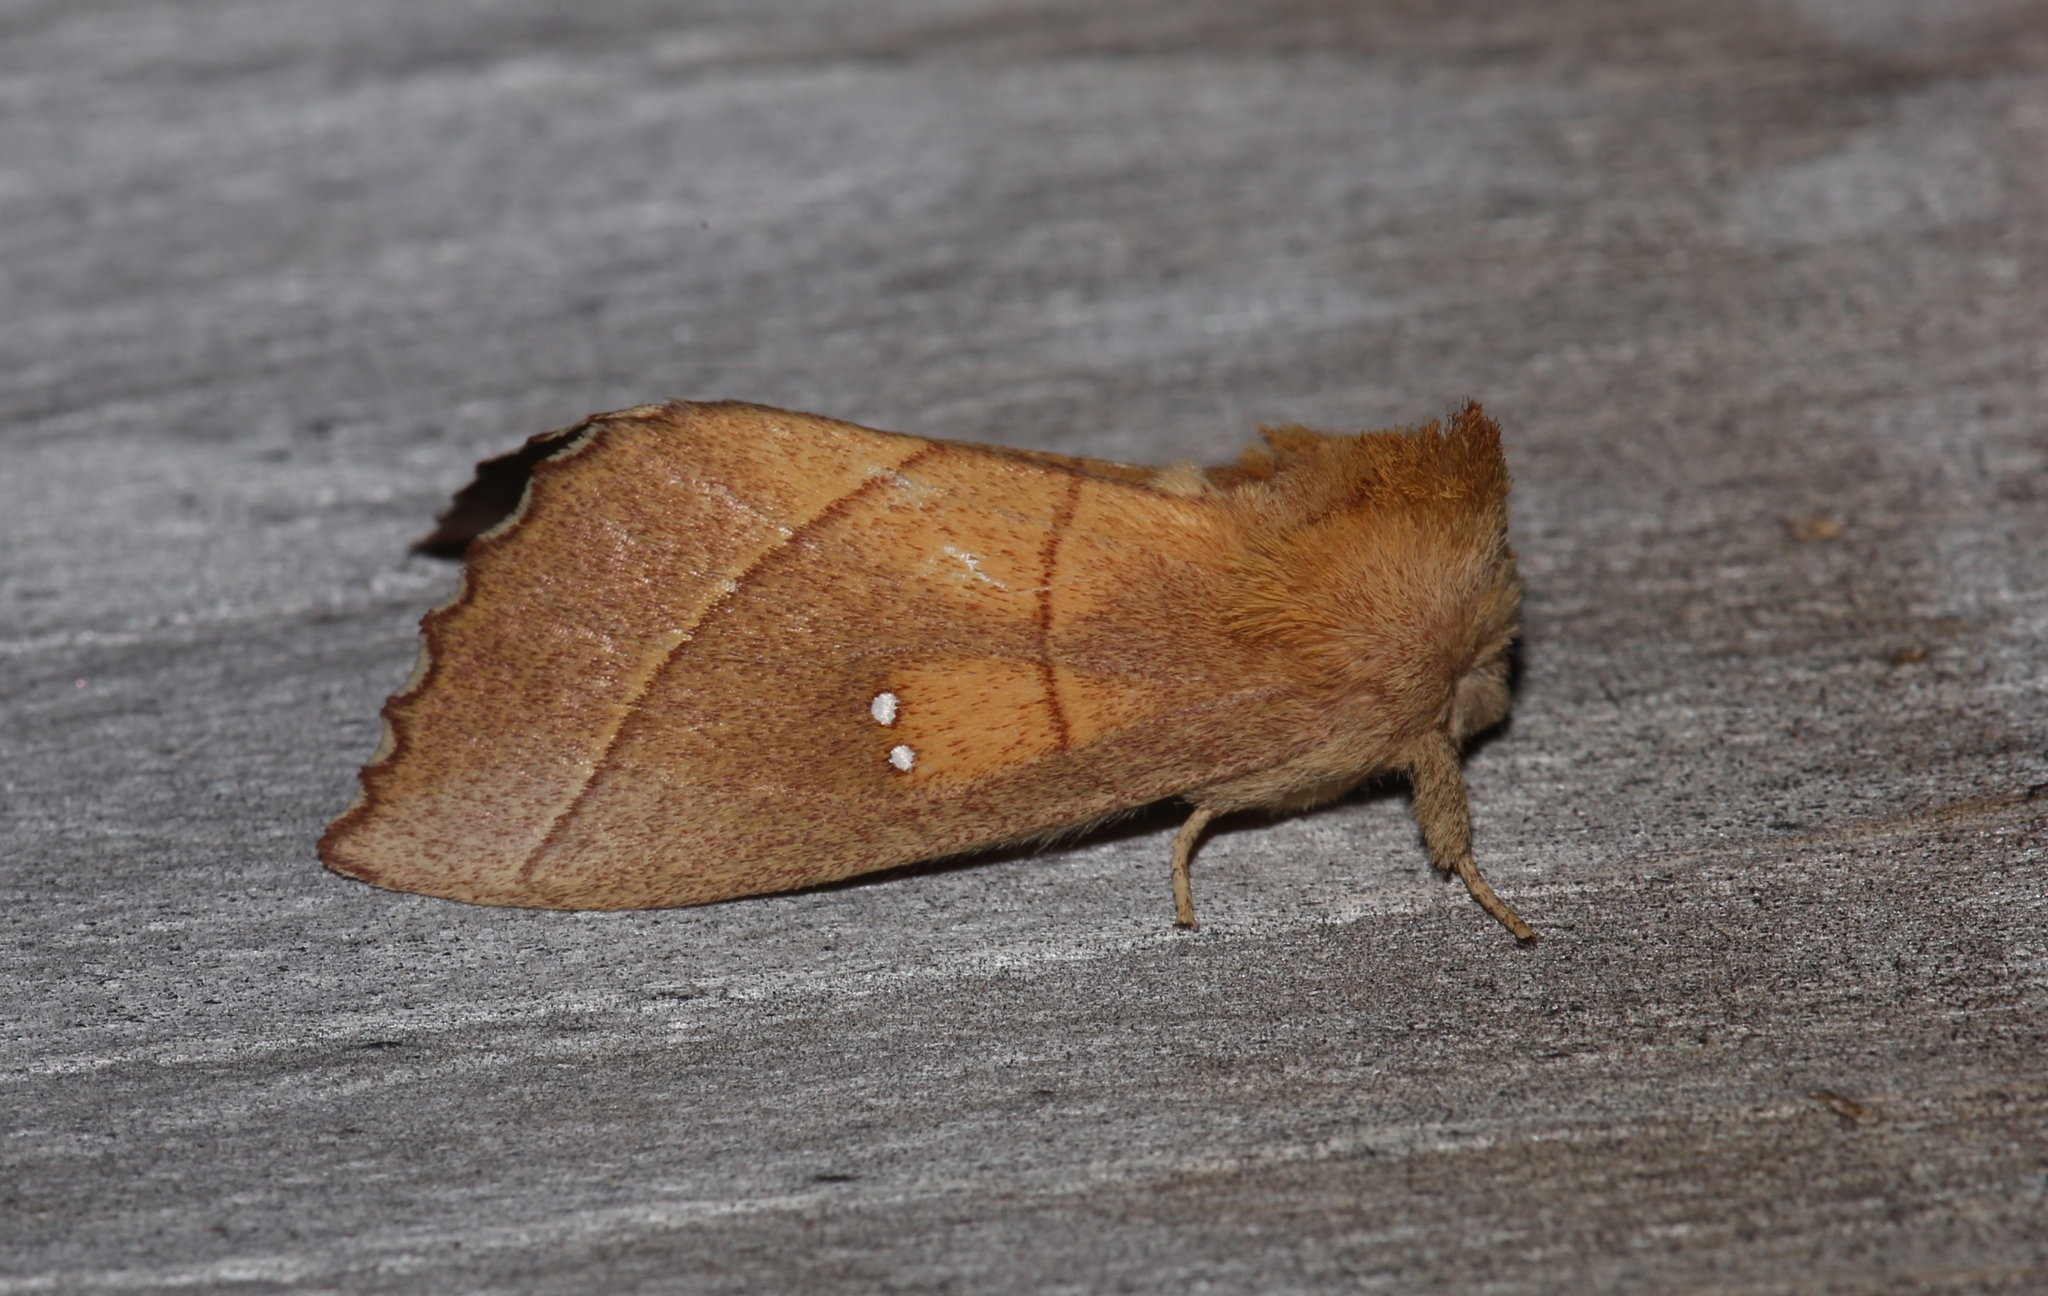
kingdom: Animalia
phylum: Arthropoda
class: Insecta
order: Lepidoptera
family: Notodontidae
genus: Nadata
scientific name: Nadata gibbosa
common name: White-dotted prominent
